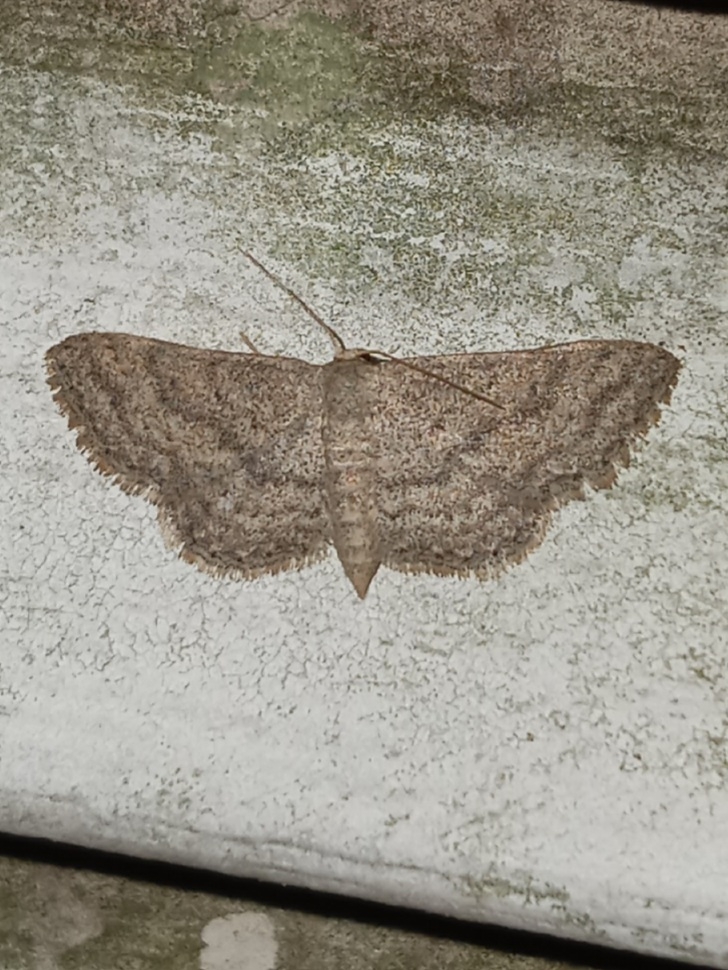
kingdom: Animalia
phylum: Arthropoda
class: Insecta
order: Lepidoptera
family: Geometridae
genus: Lobocleta
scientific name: Lobocleta ossularia
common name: Drab brown wave
